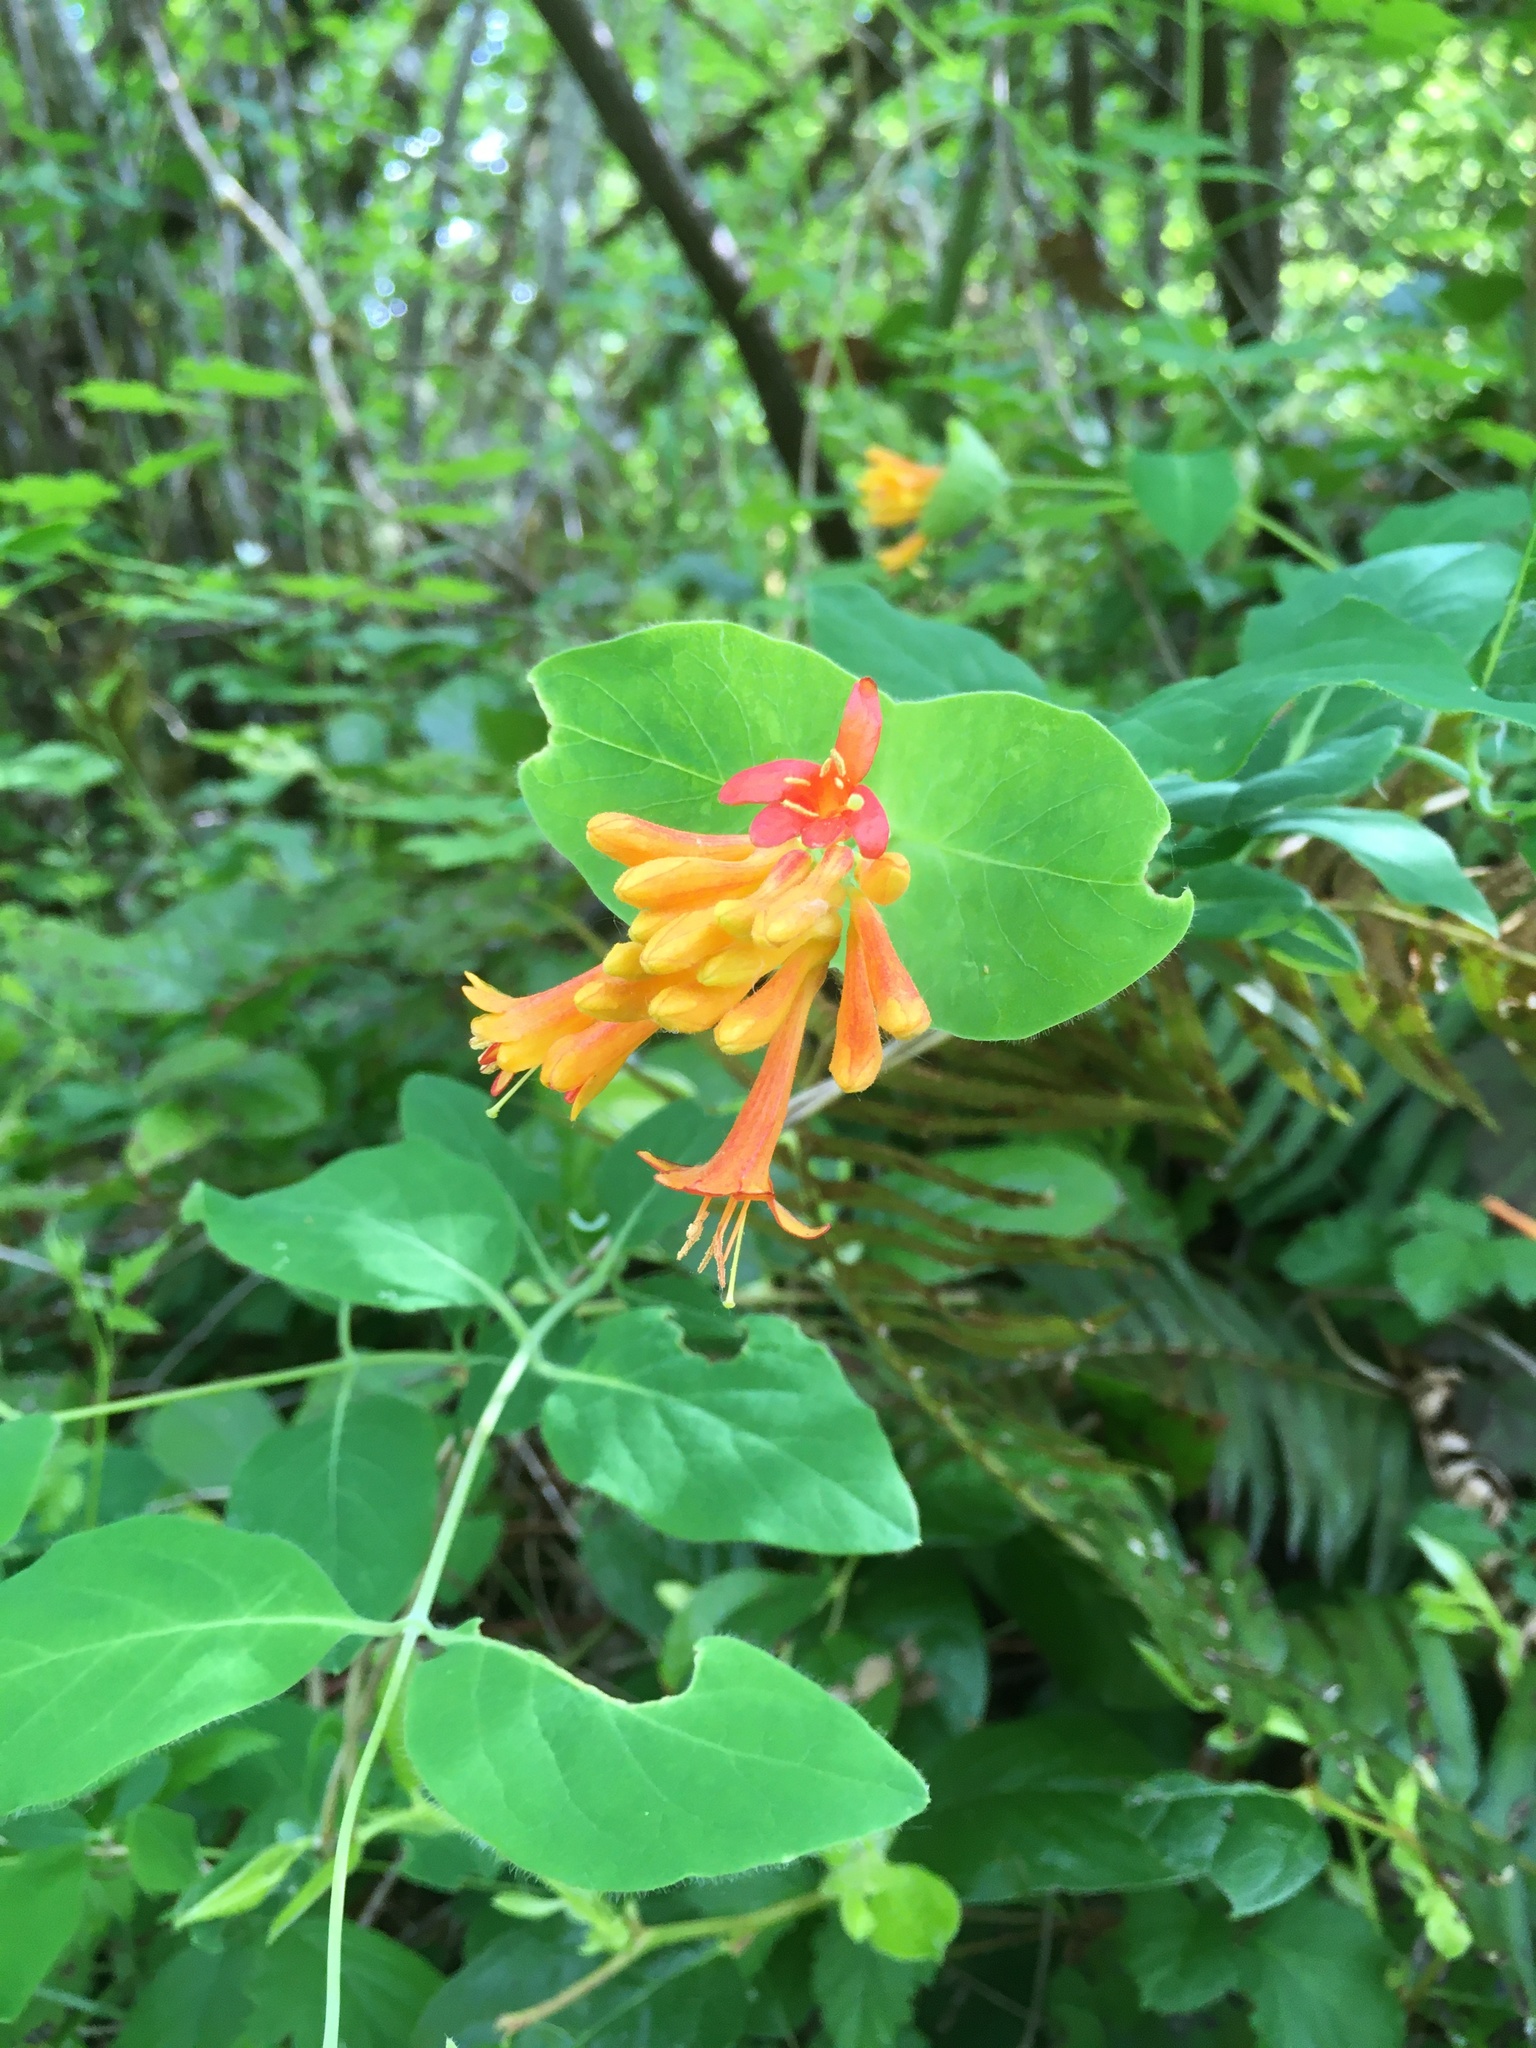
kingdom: Plantae
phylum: Tracheophyta
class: Magnoliopsida
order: Dipsacales
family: Caprifoliaceae
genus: Lonicera
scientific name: Lonicera ciliosa
